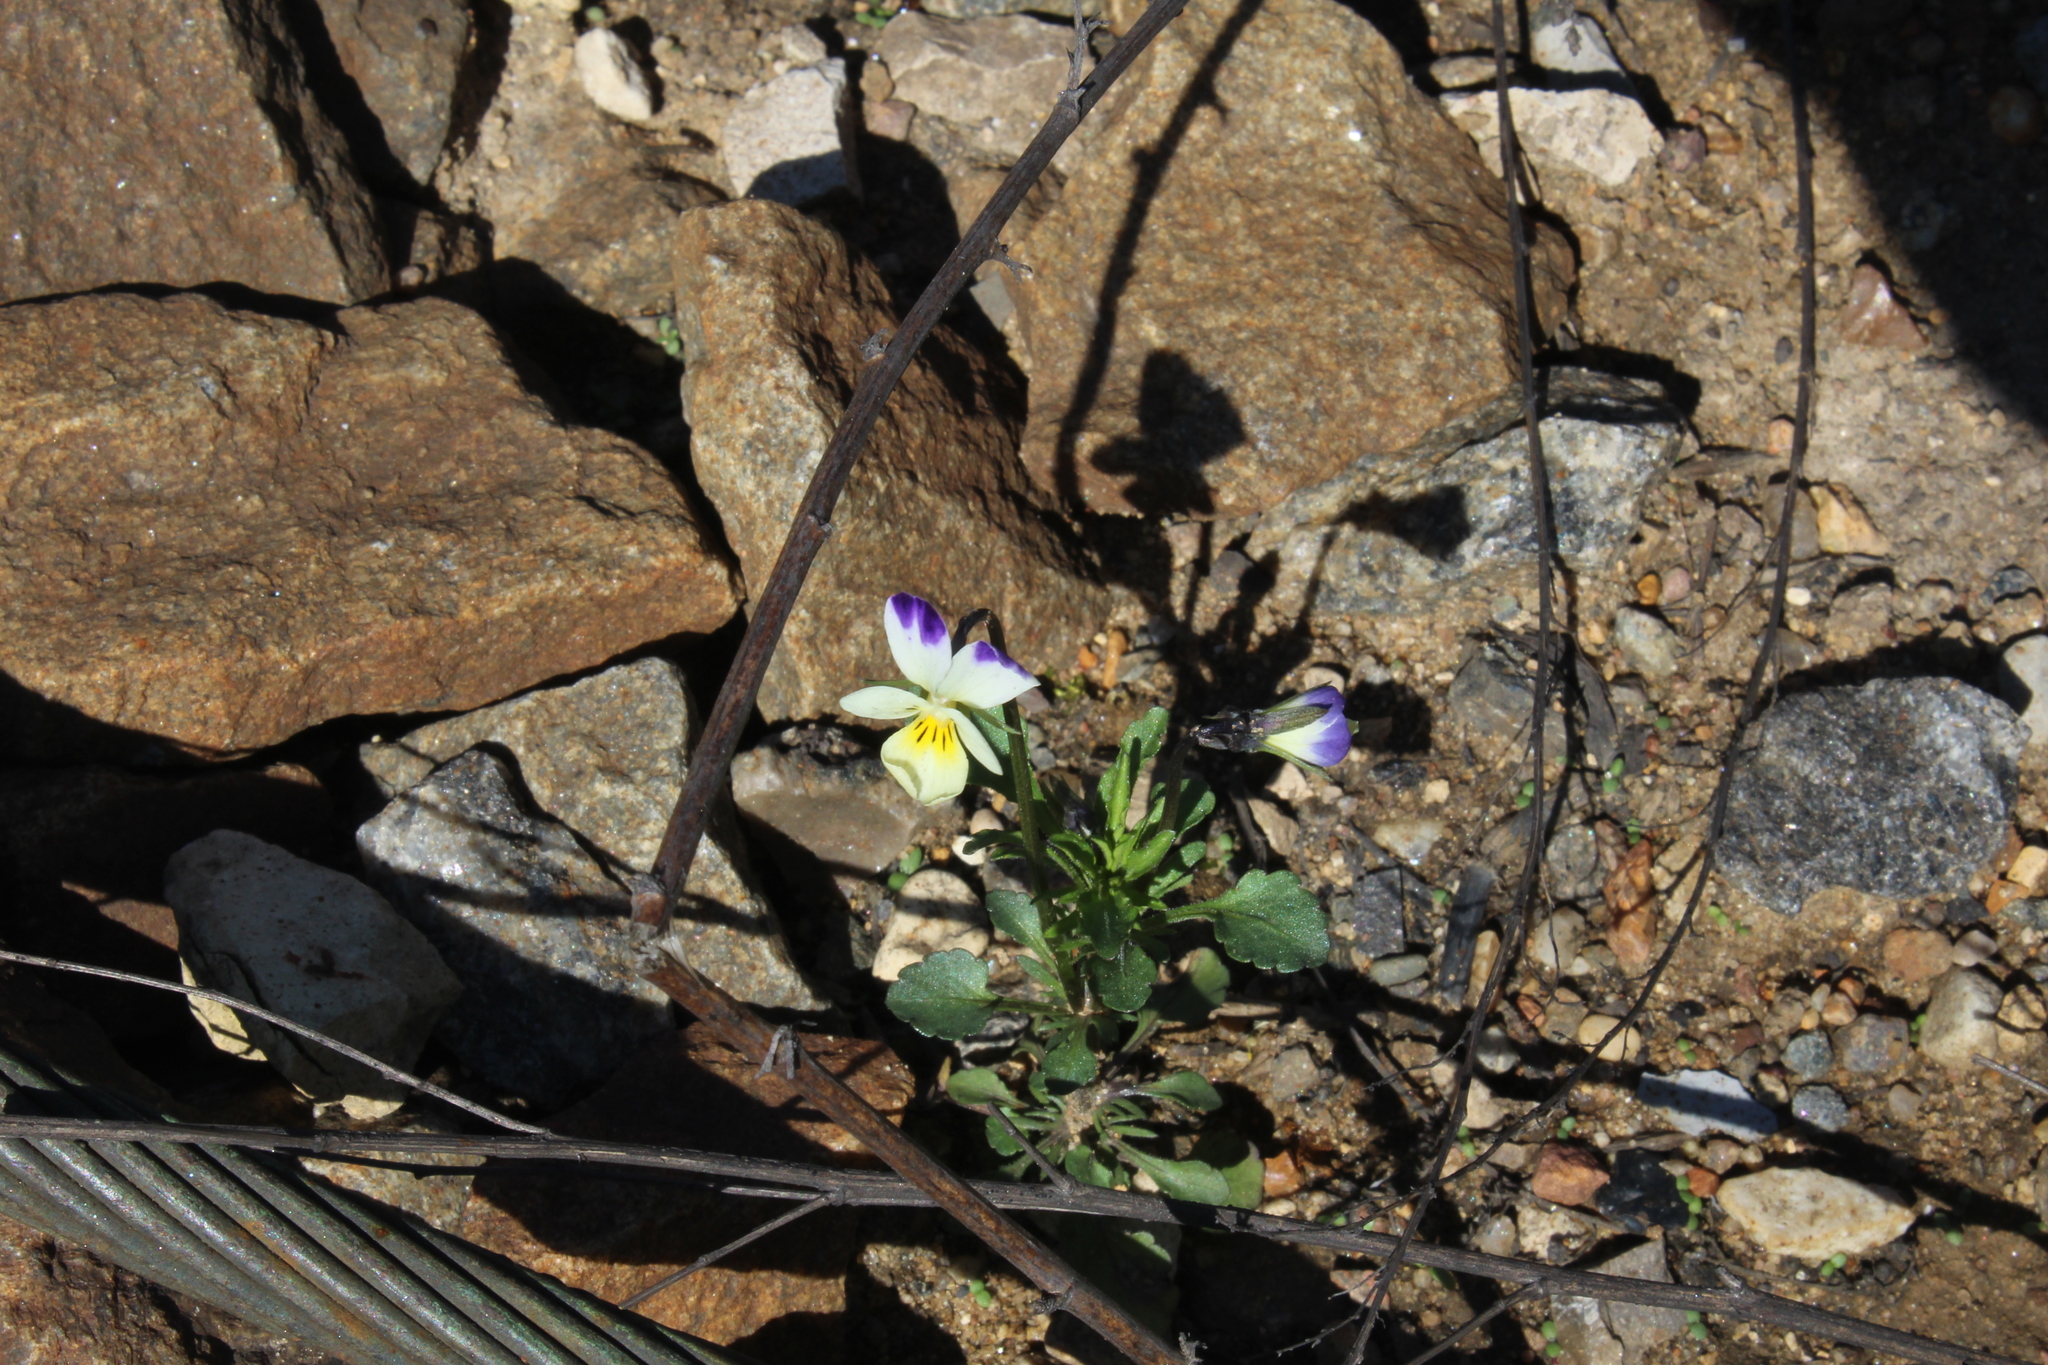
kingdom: Plantae
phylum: Tracheophyta
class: Magnoliopsida
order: Malpighiales
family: Violaceae
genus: Viola
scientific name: Viola contempta
